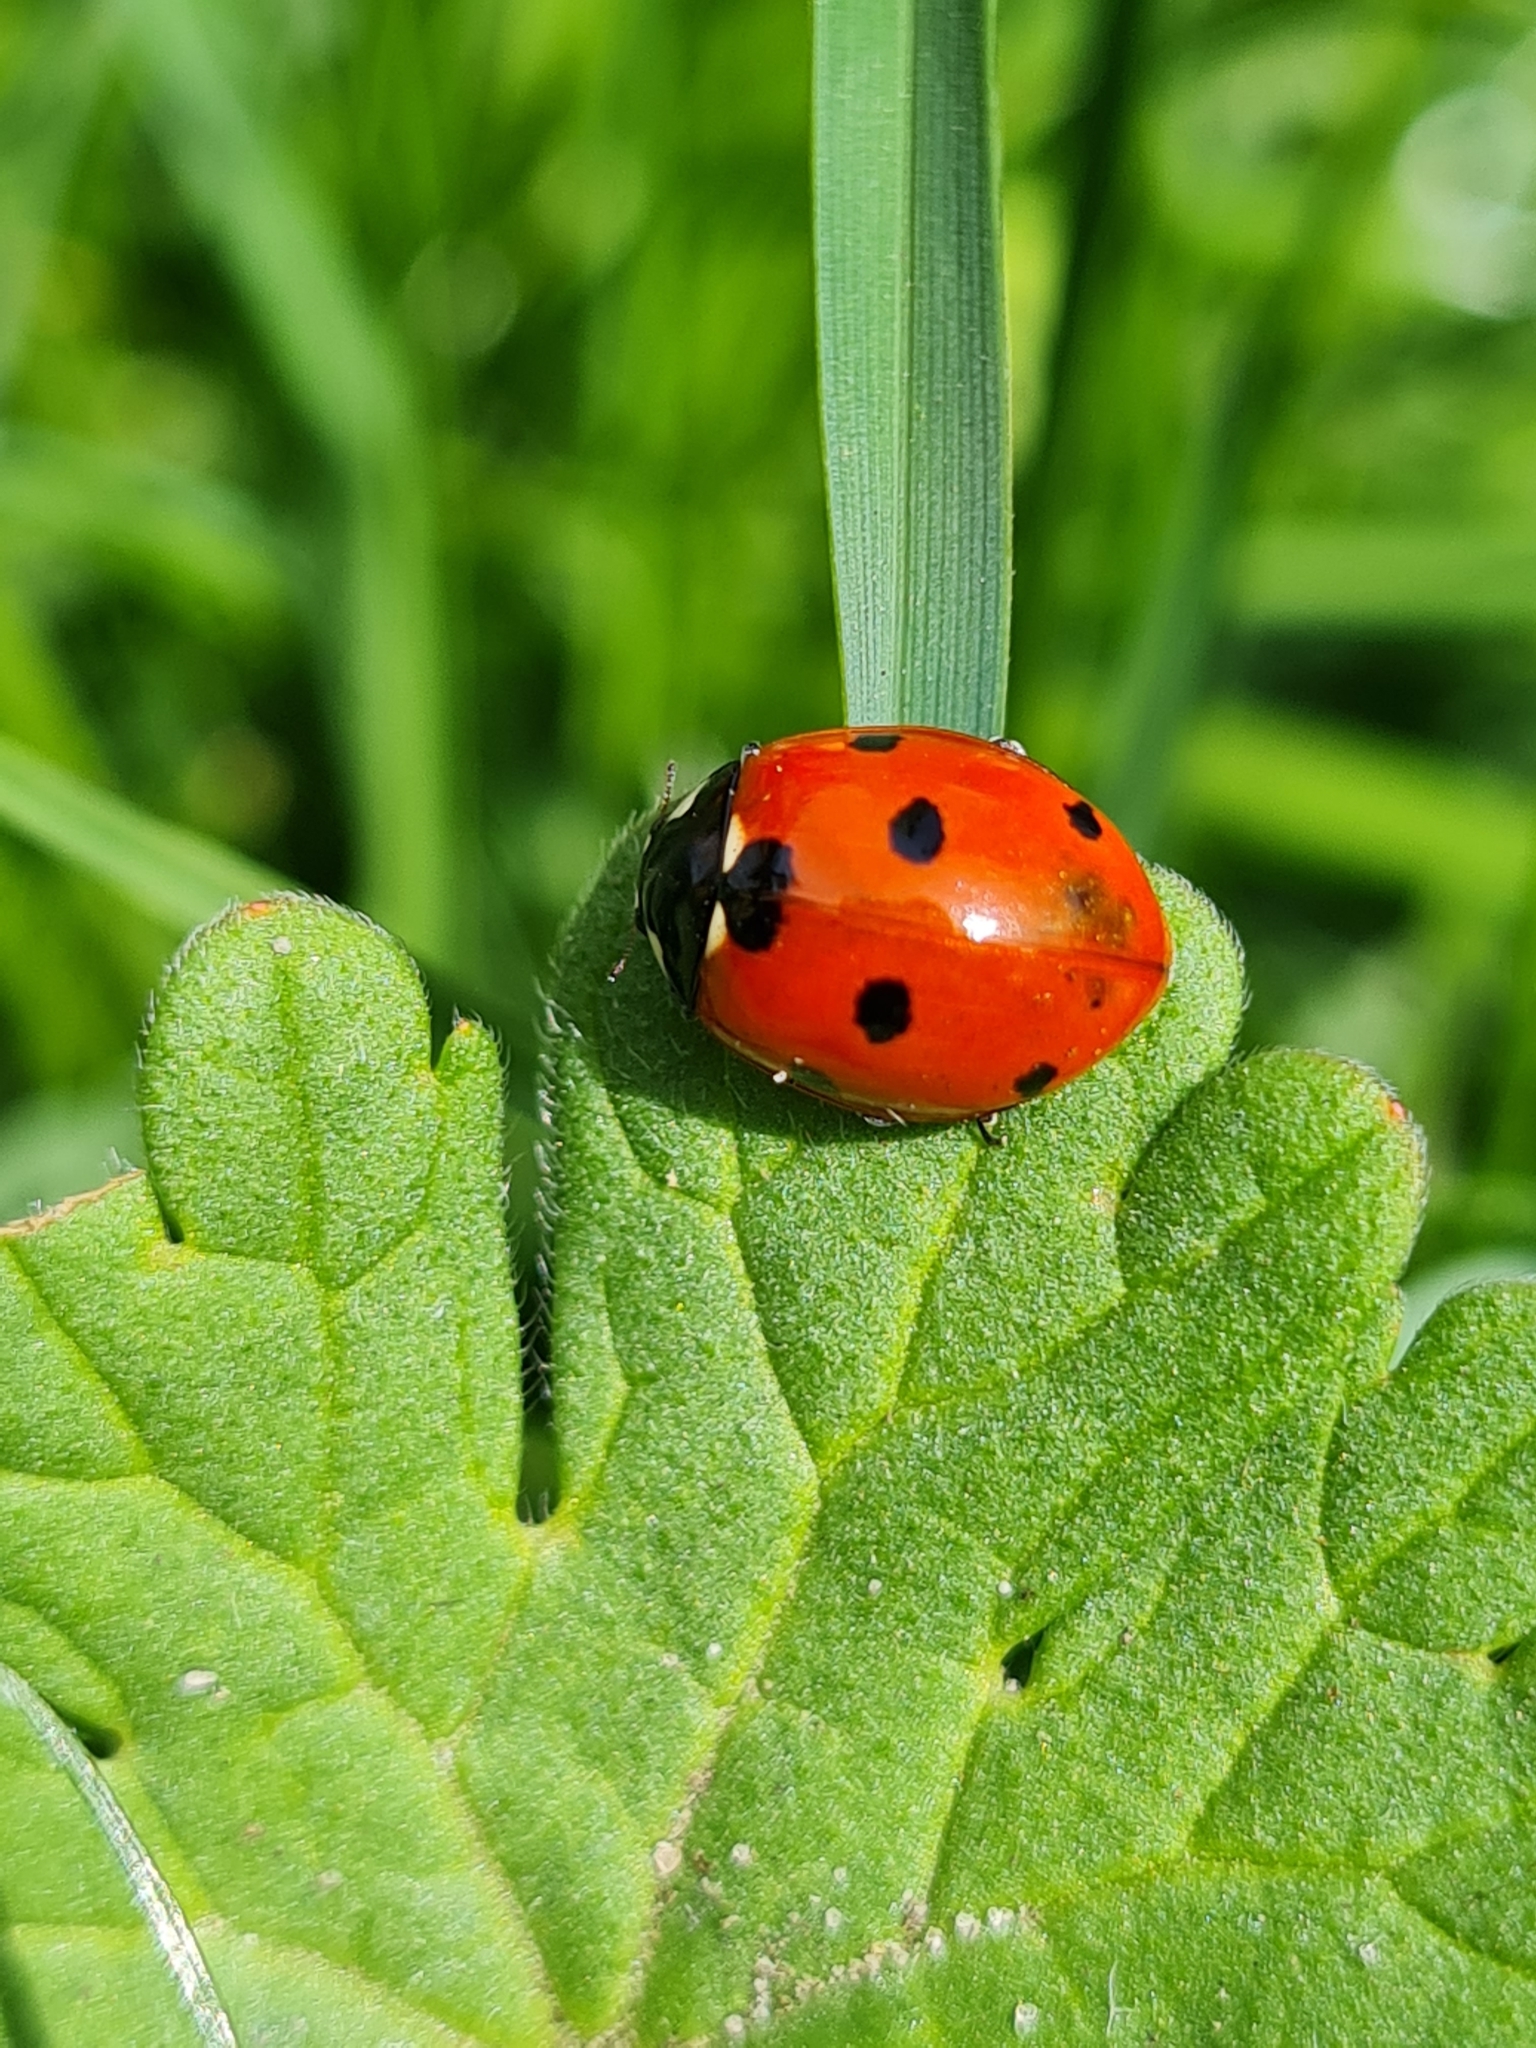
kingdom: Animalia
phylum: Arthropoda
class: Insecta
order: Coleoptera
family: Coccinellidae
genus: Coccinella
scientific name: Coccinella septempunctata
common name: Sevenspotted lady beetle
